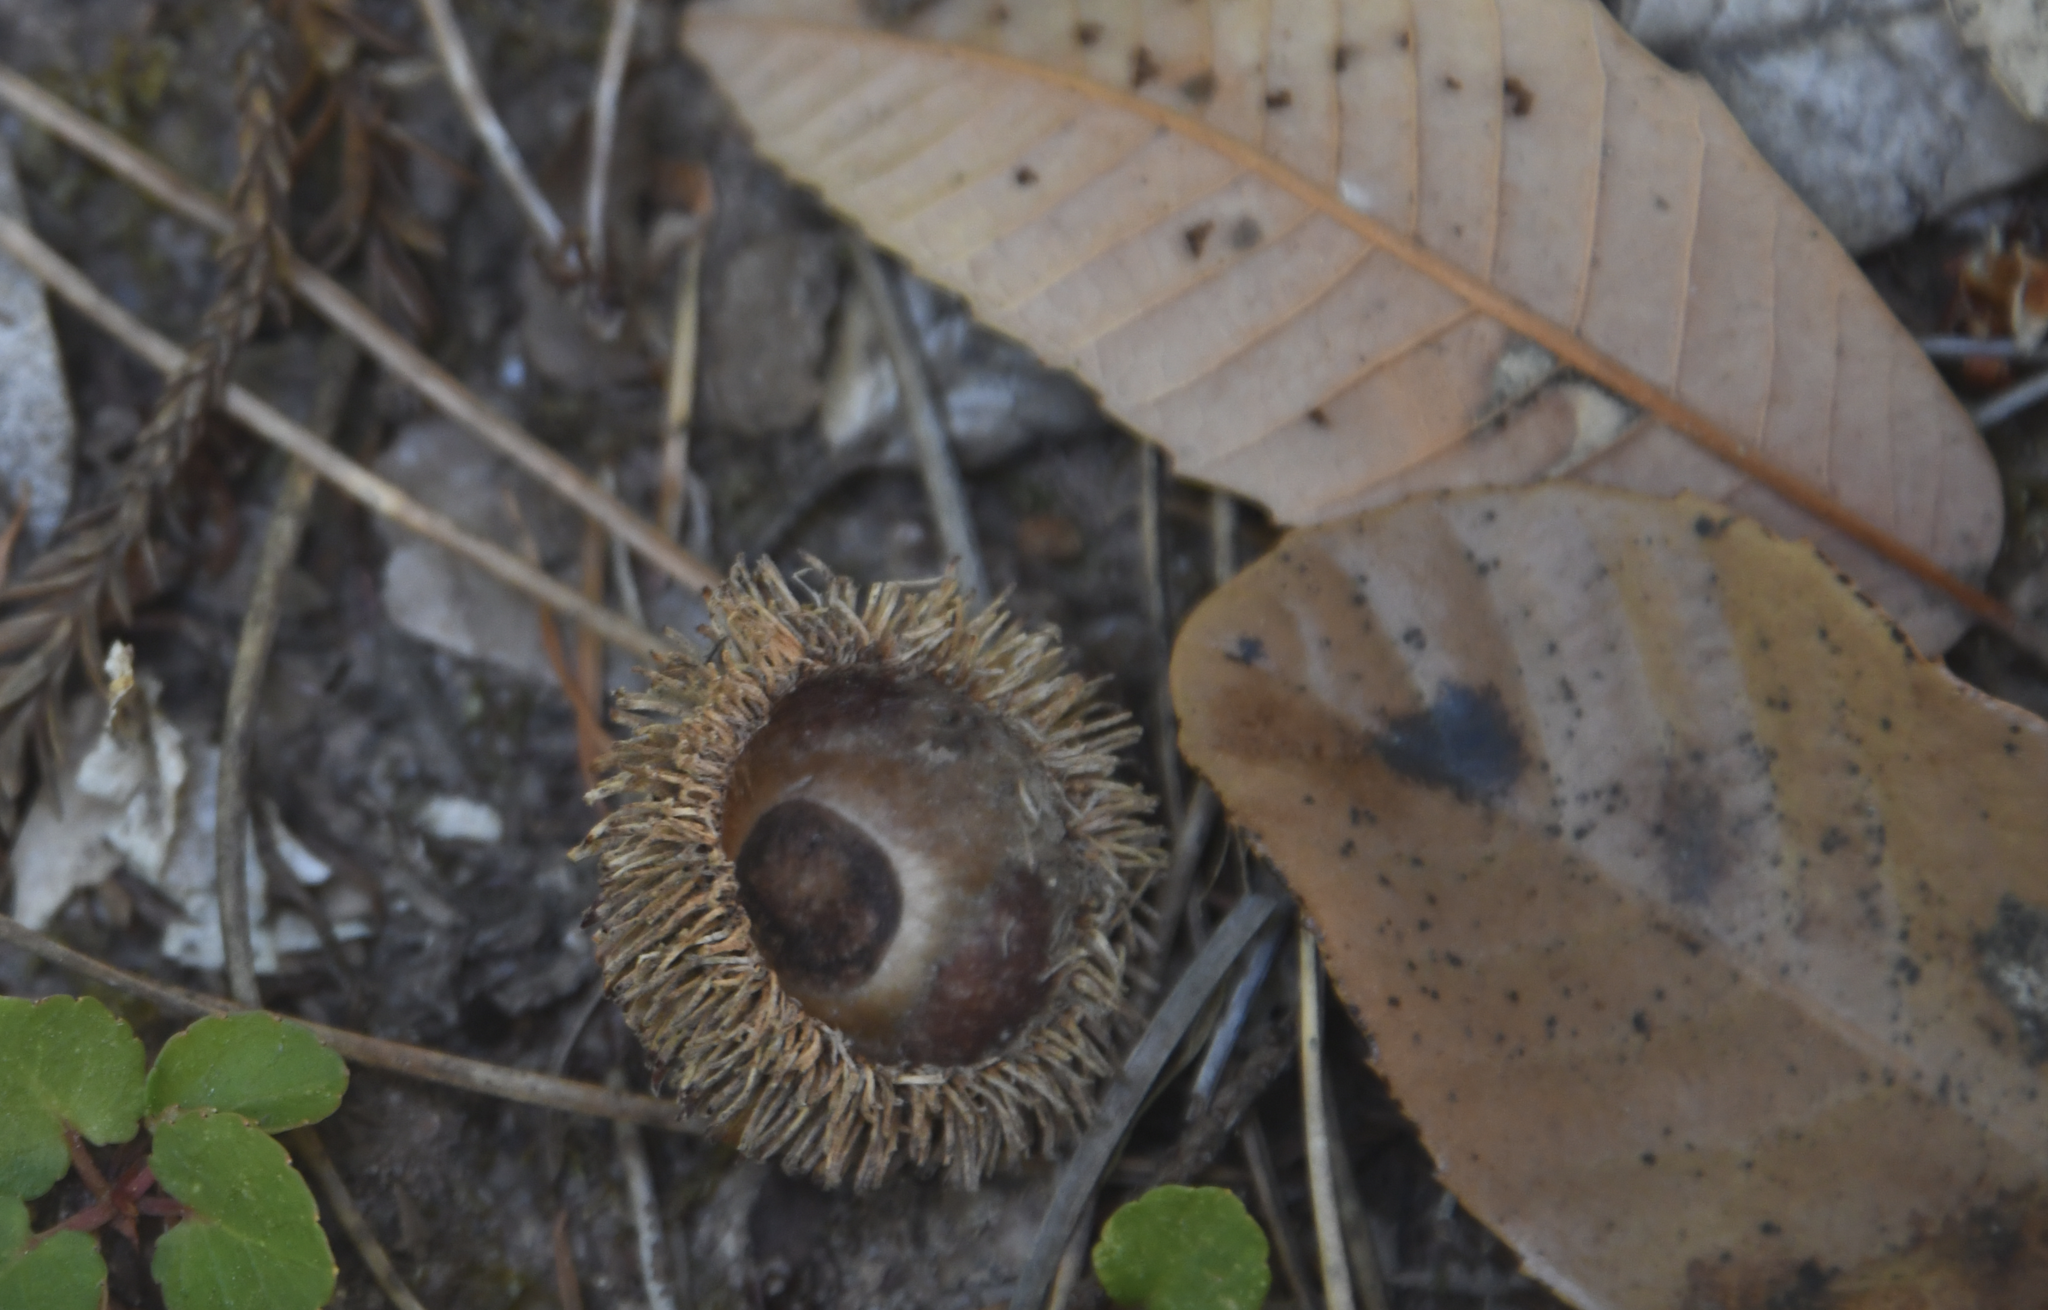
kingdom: Plantae
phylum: Tracheophyta
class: Magnoliopsida
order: Fagales
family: Fagaceae
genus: Notholithocarpus
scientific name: Notholithocarpus densiflorus
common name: Tan bark oak
